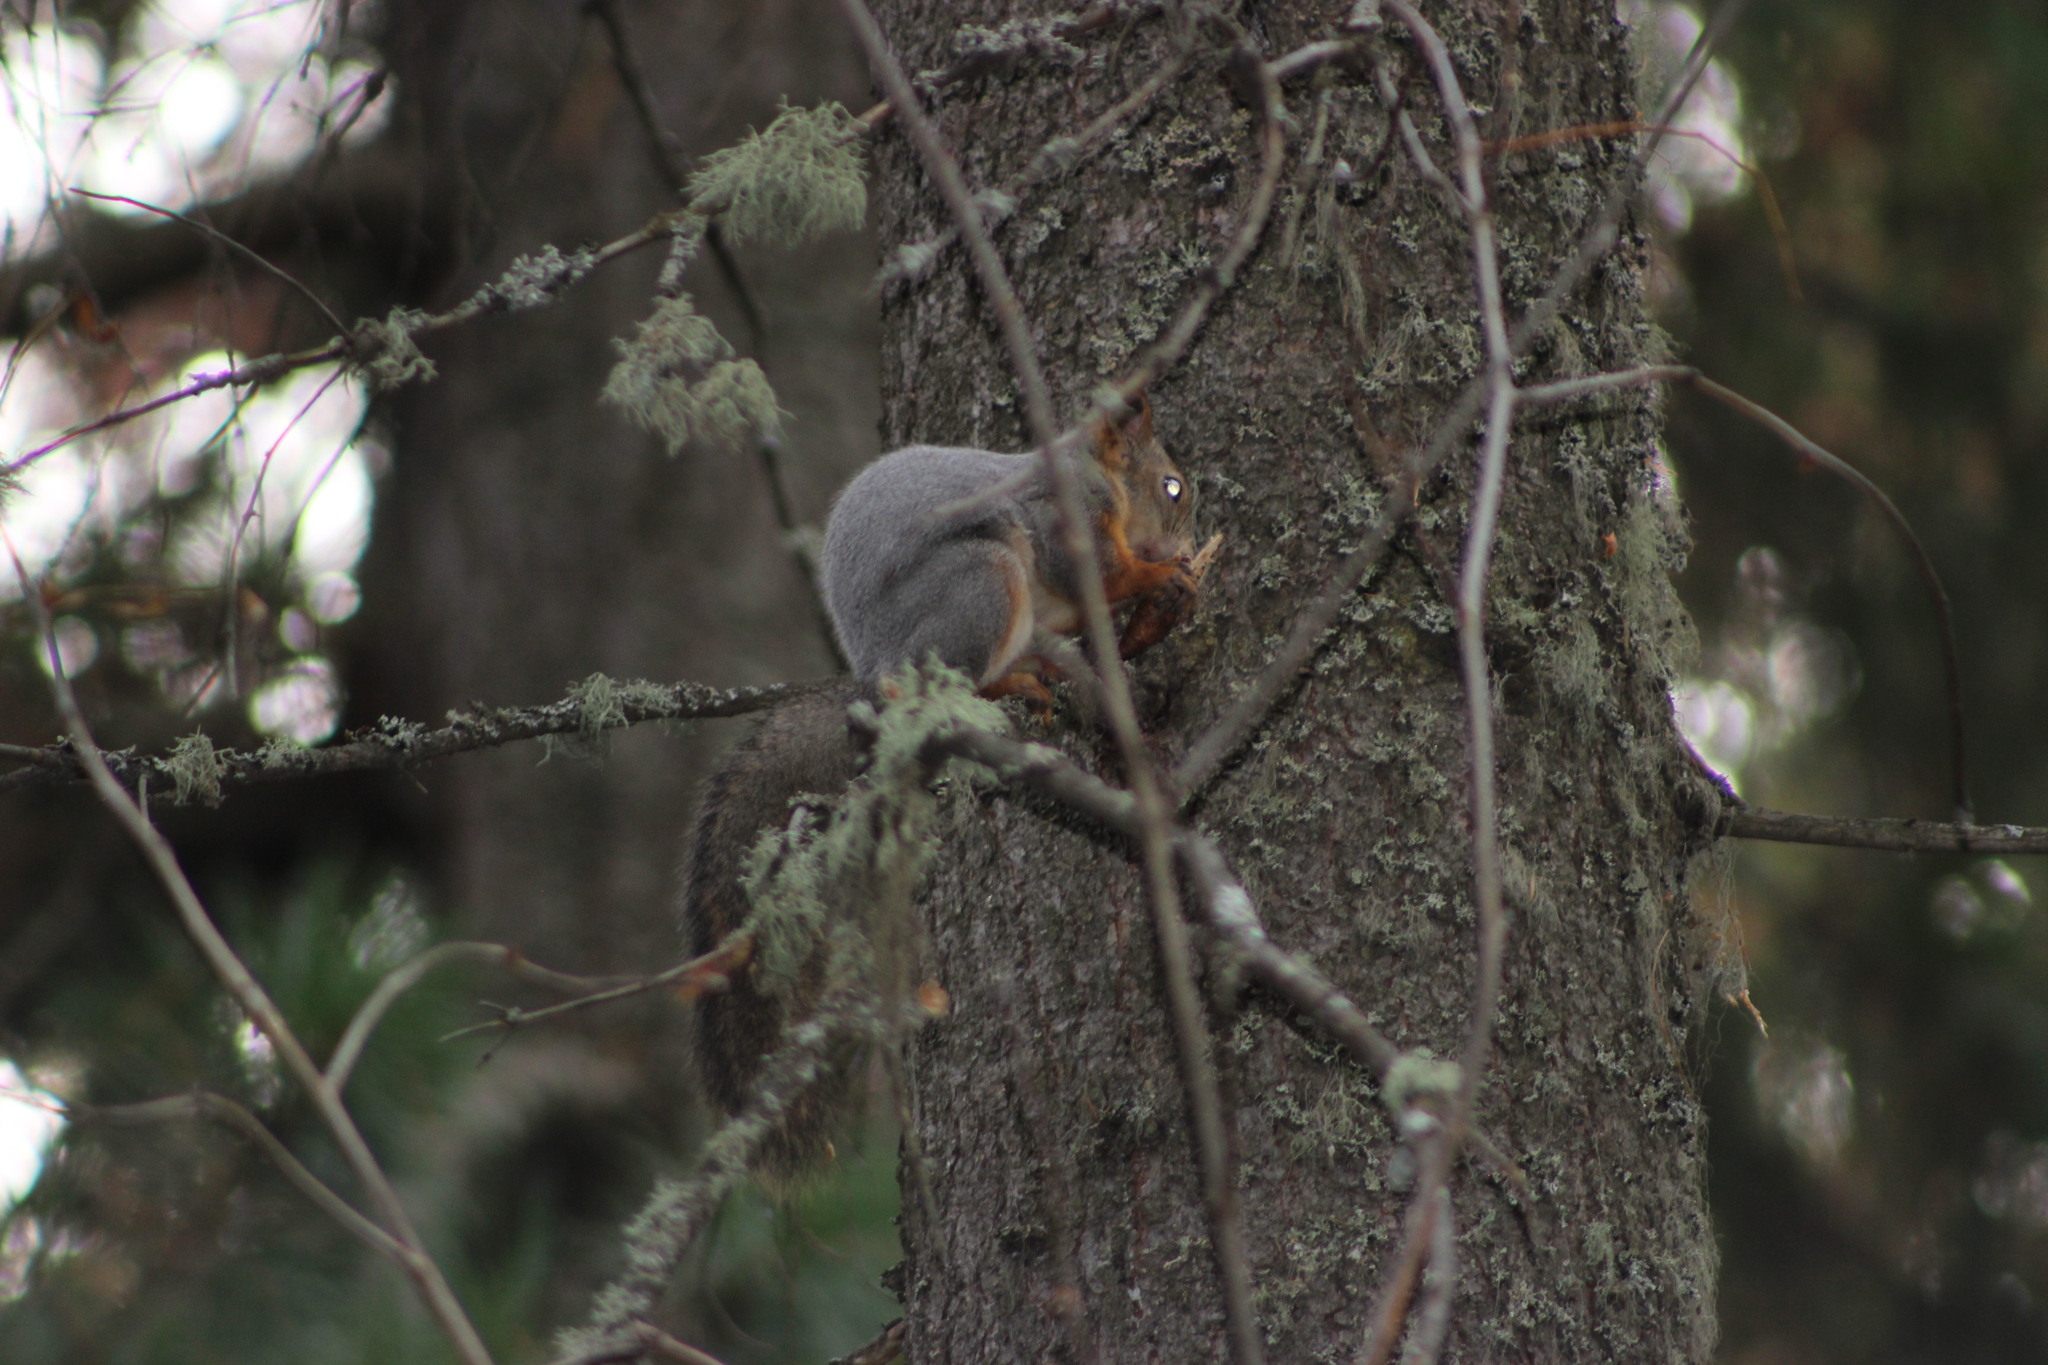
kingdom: Animalia
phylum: Chordata
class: Mammalia
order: Rodentia
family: Sciuridae
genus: Sciurus
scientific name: Sciurus vulgaris
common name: Eurasian red squirrel
